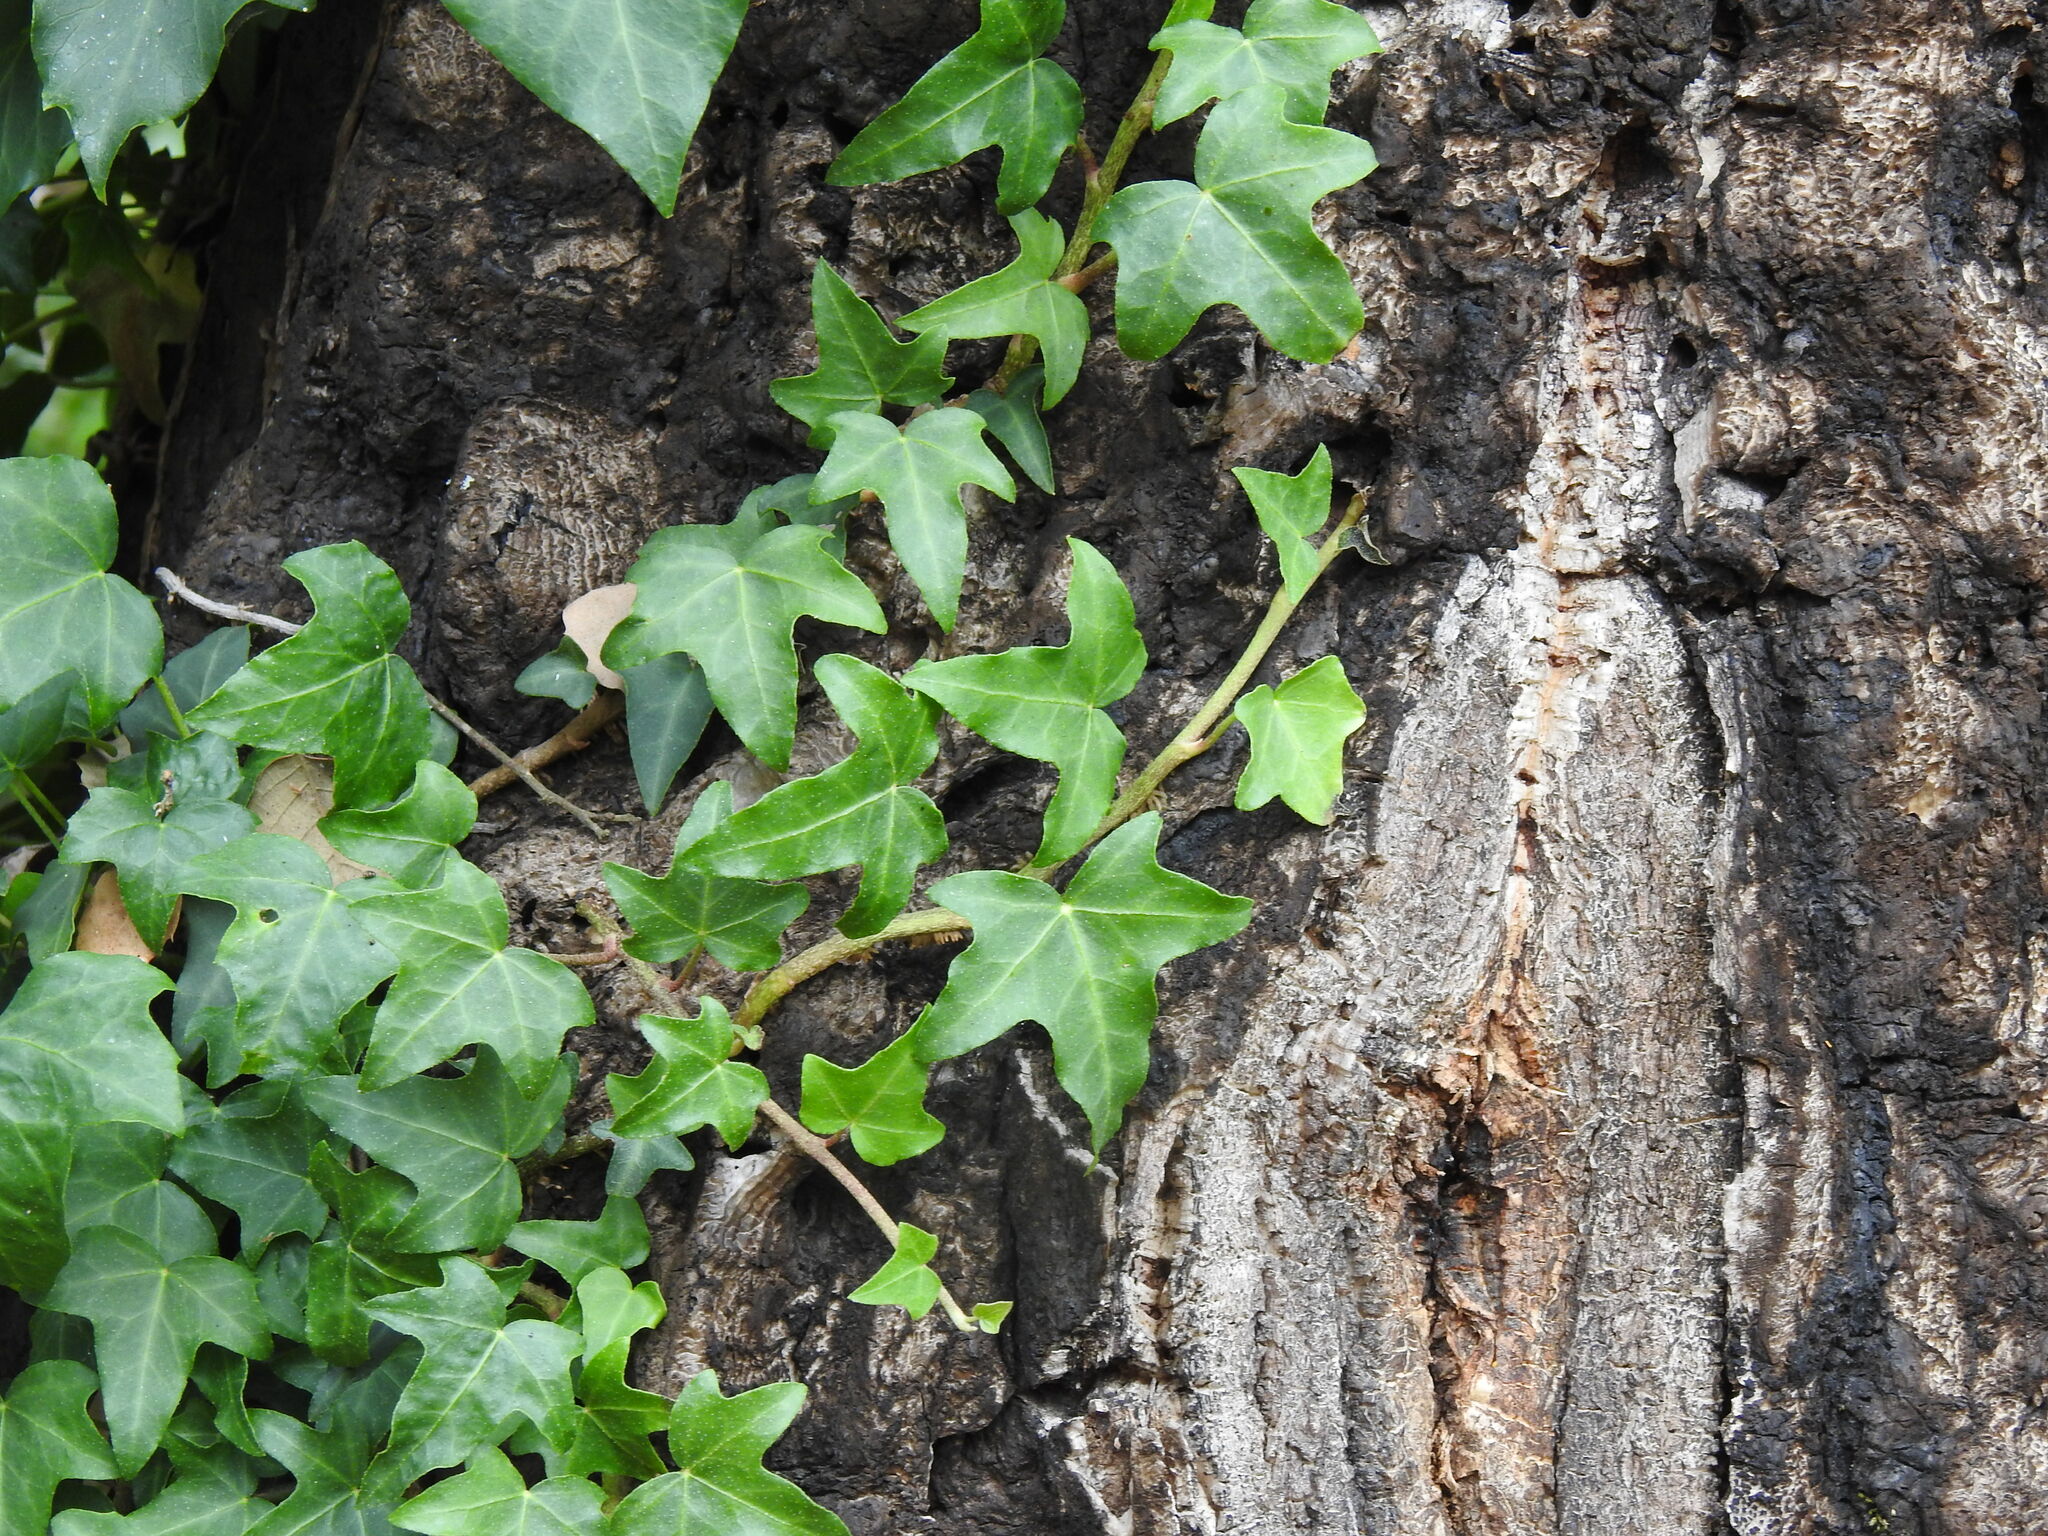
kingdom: Plantae
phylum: Tracheophyta
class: Magnoliopsida
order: Apiales
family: Araliaceae
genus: Hedera
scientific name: Hedera hibernica
